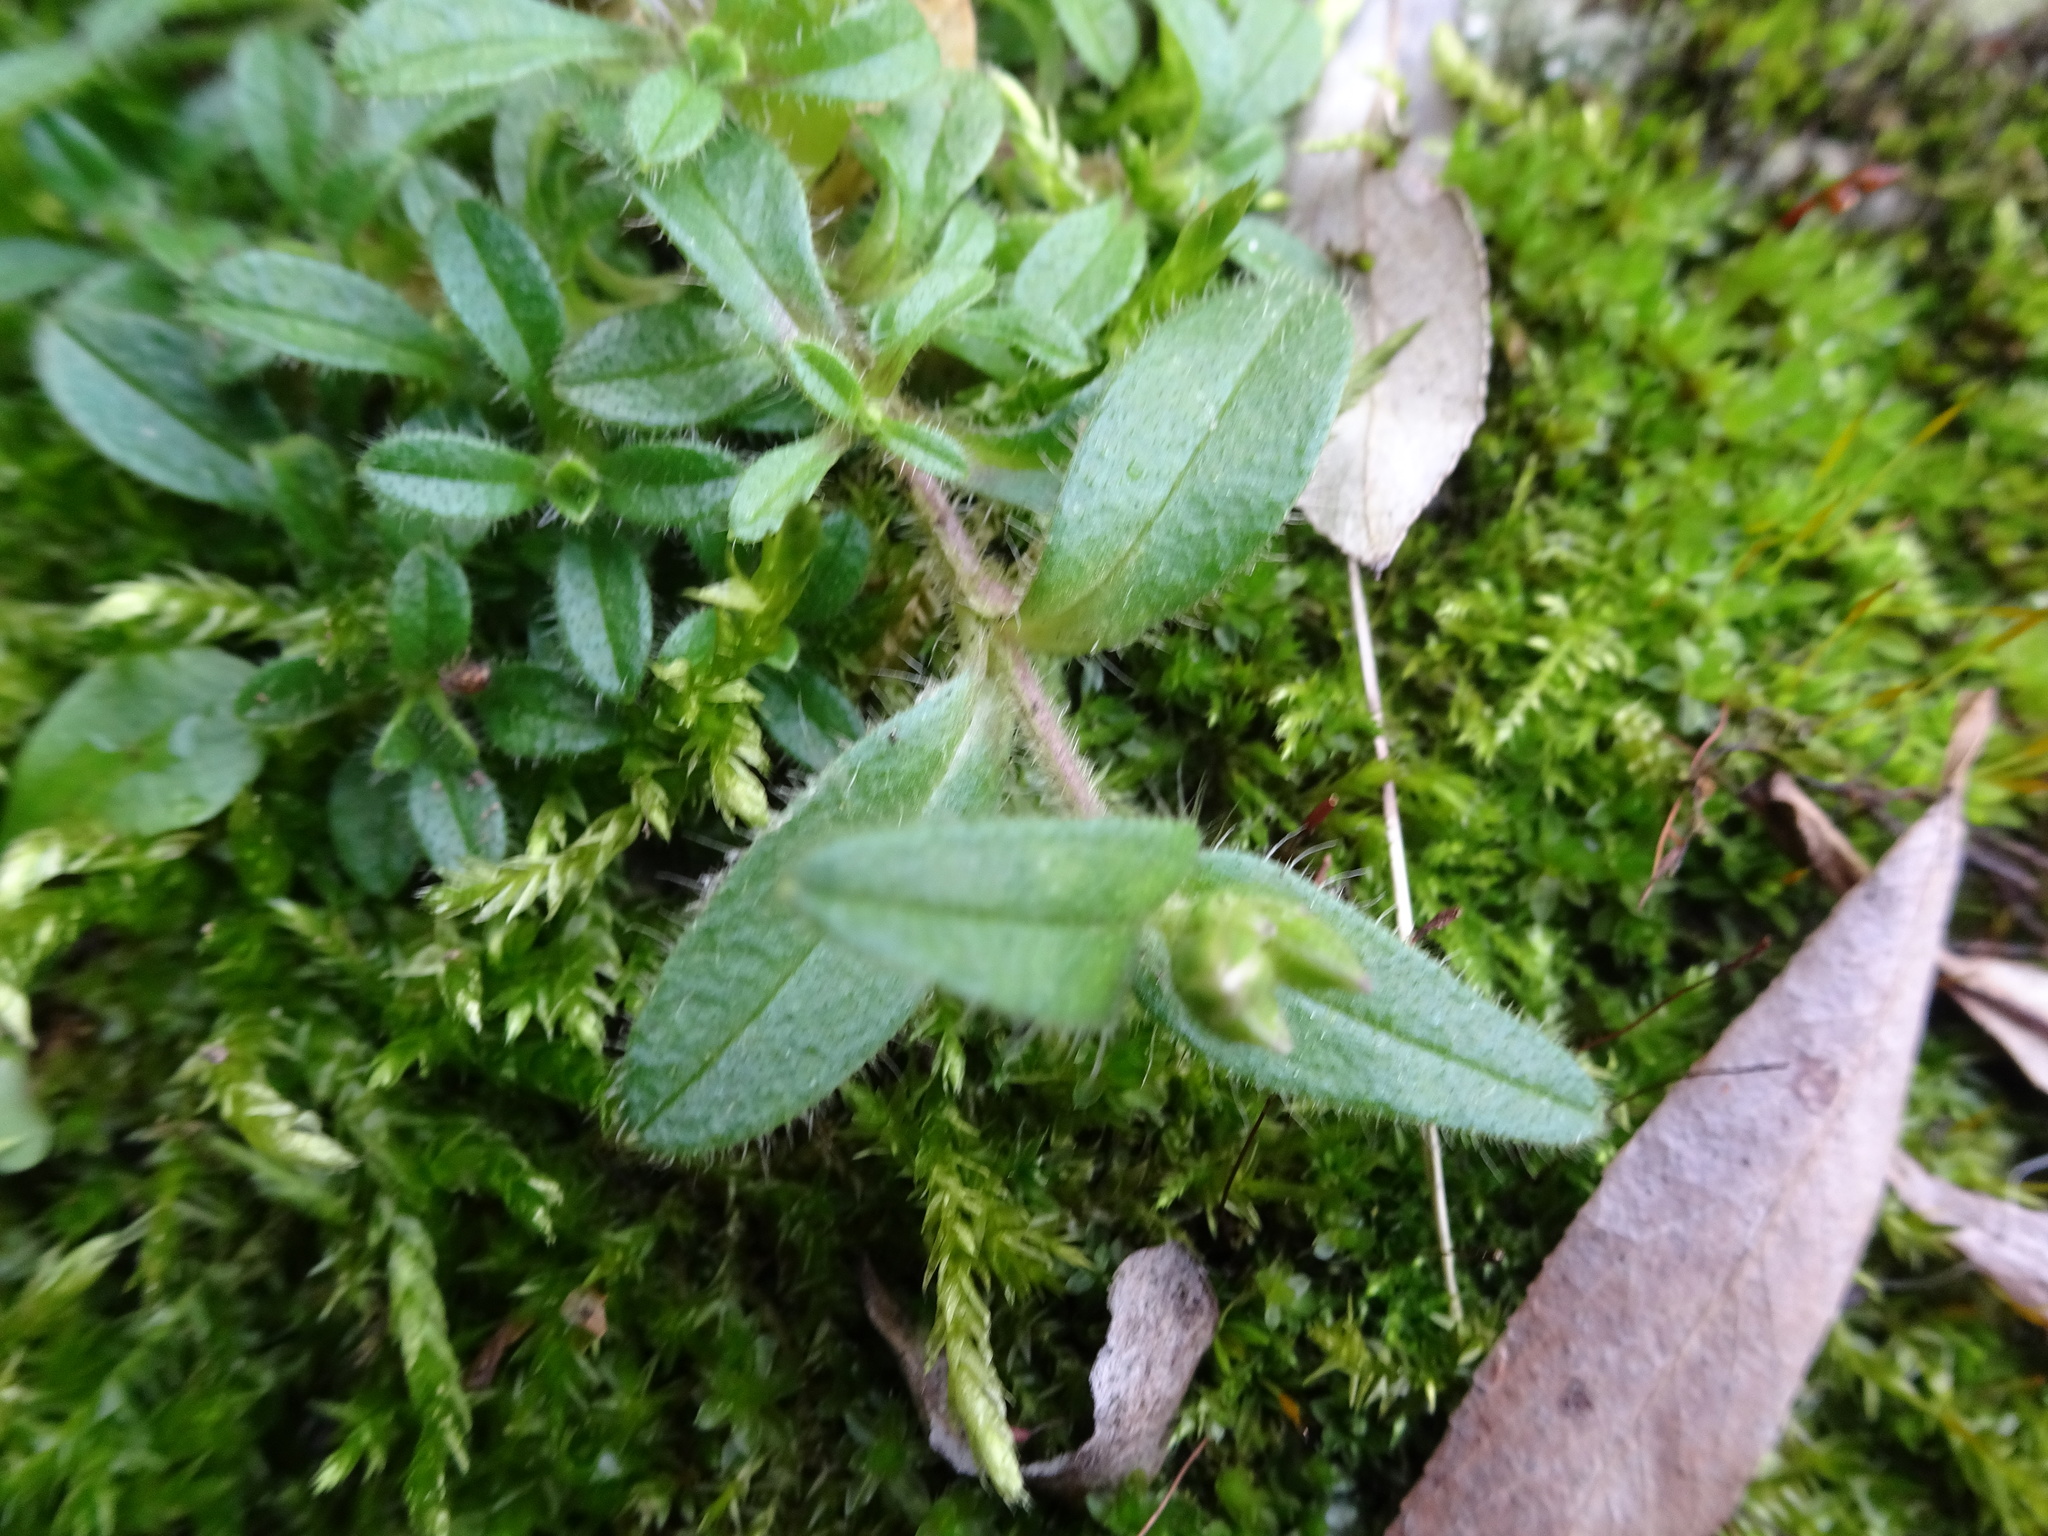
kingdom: Plantae
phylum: Tracheophyta
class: Magnoliopsida
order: Caryophyllales
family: Caryophyllaceae
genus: Cerastium
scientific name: Cerastium holosteoides
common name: Big chickweed
